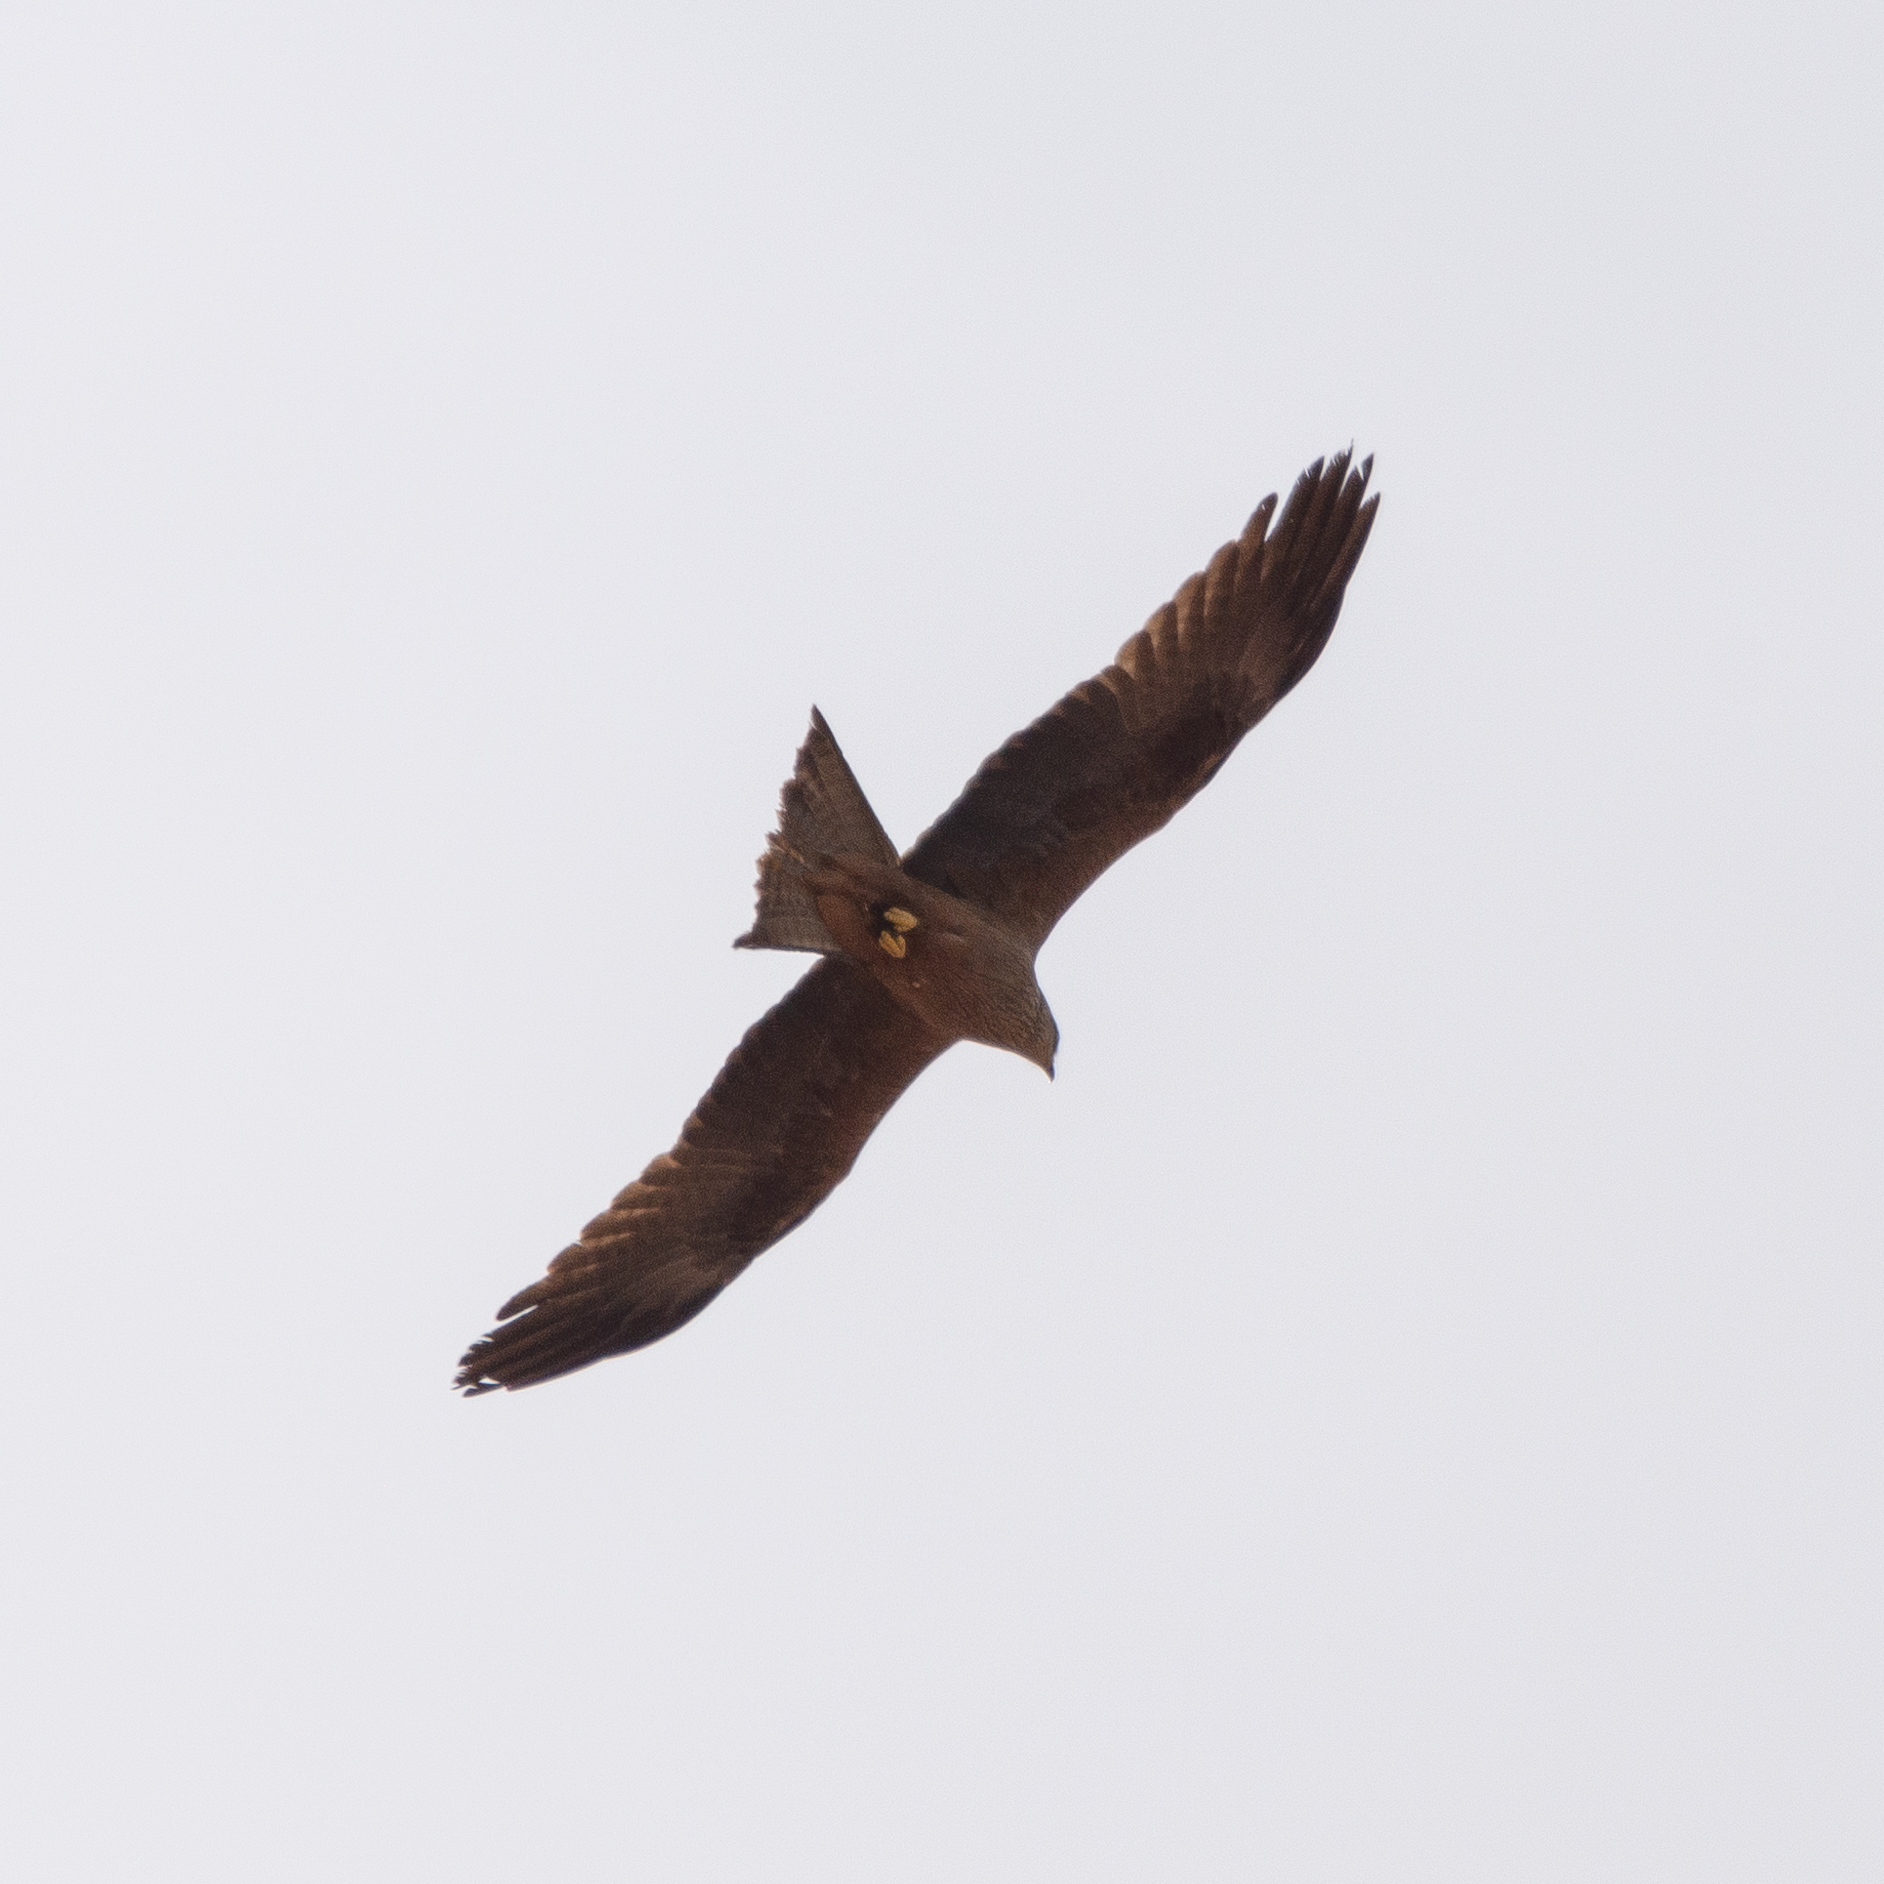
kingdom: Animalia
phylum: Chordata
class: Aves
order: Accipitriformes
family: Accipitridae
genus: Milvus
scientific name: Milvus migrans
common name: Black kite
